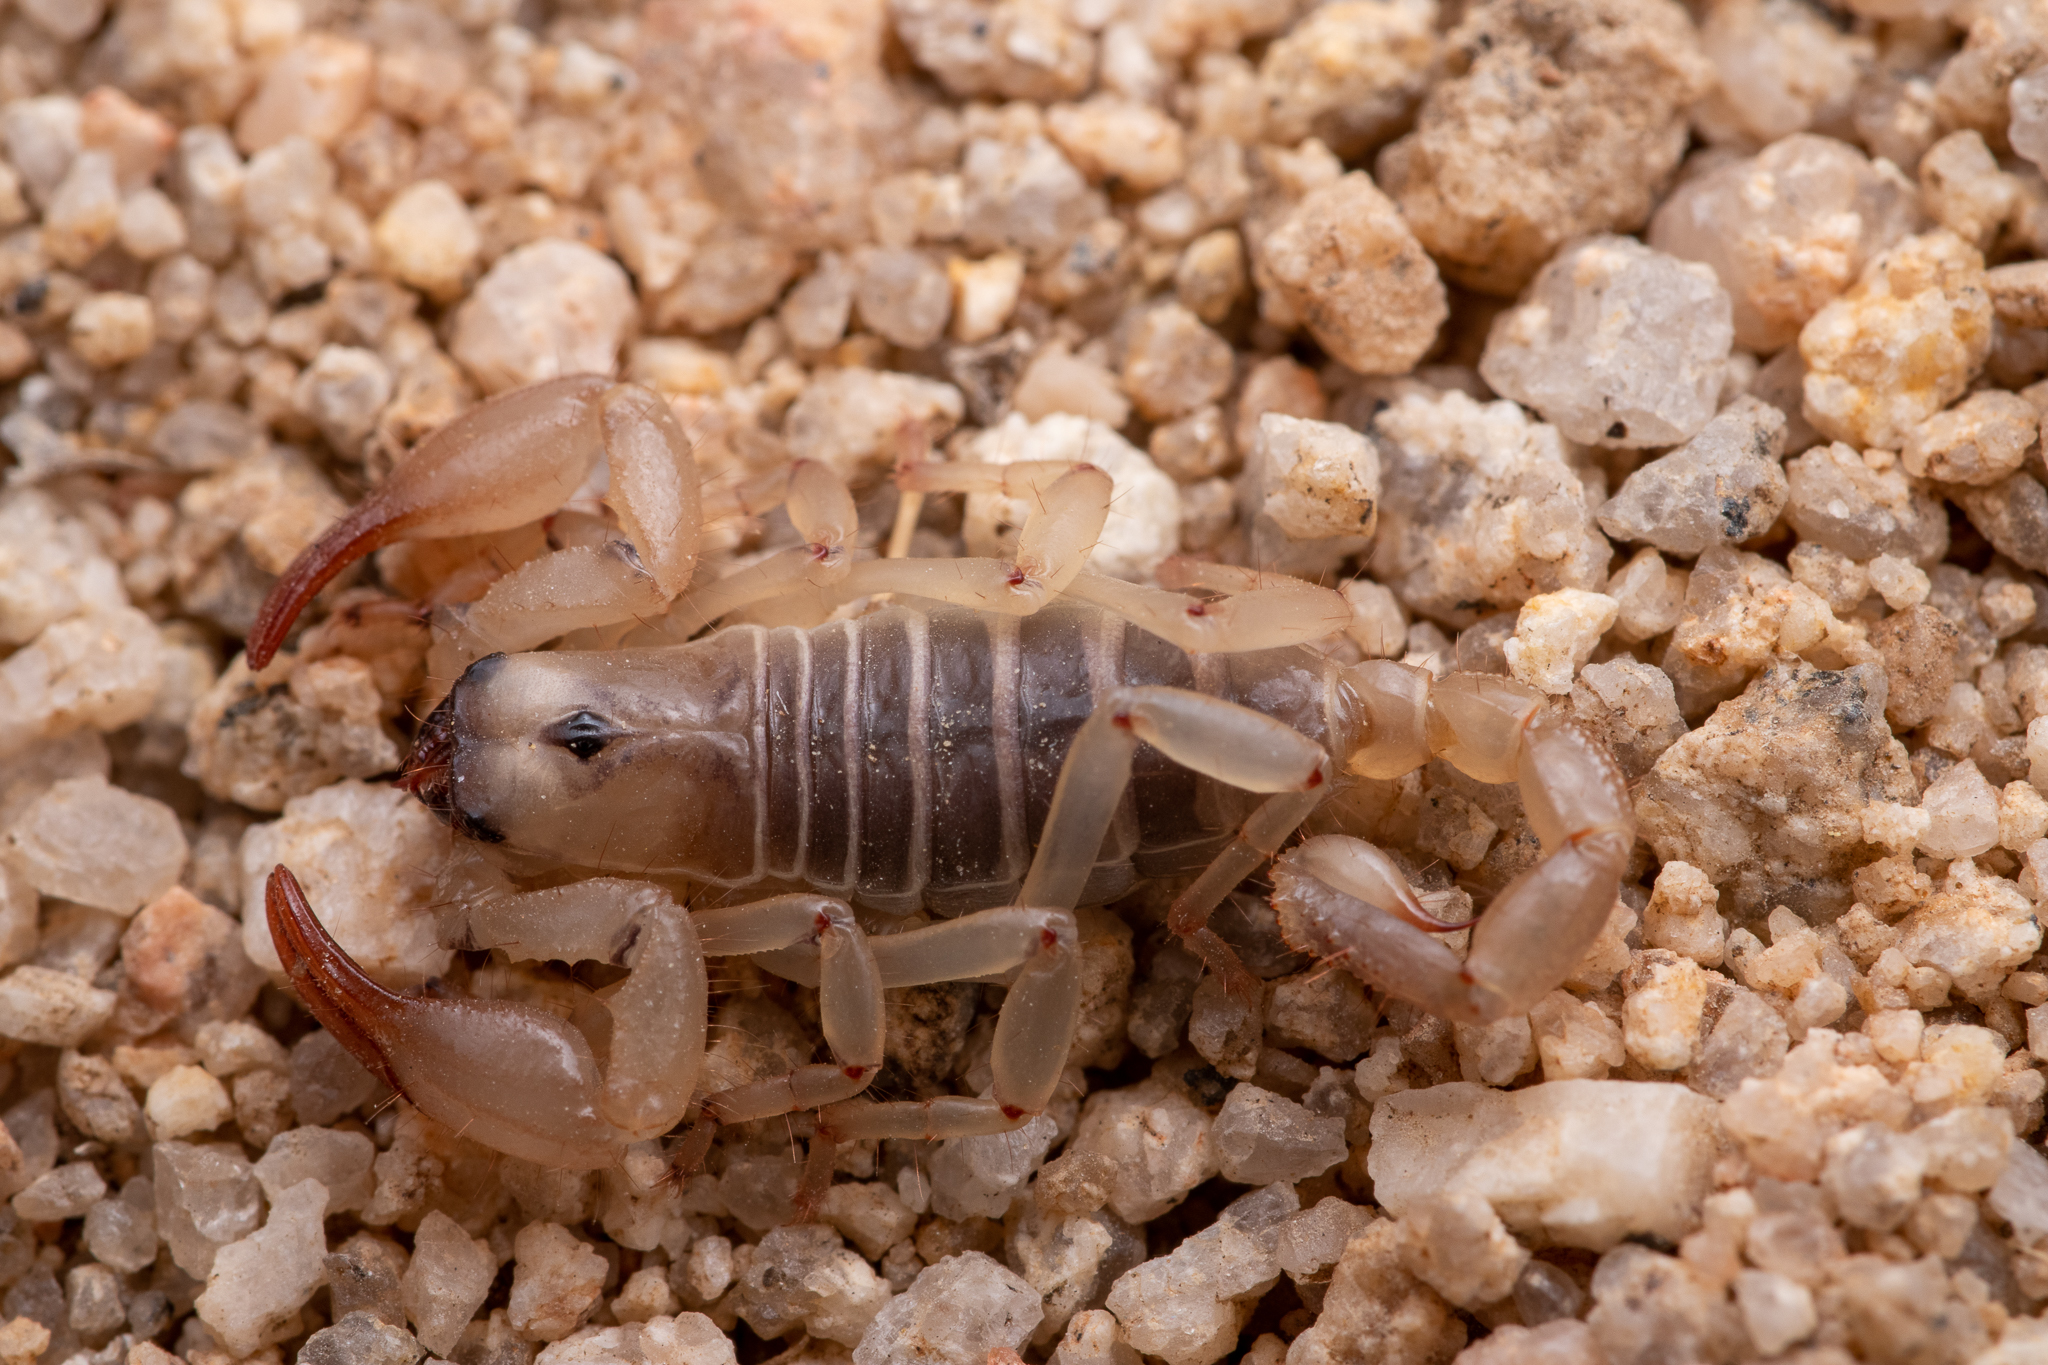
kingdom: Animalia
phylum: Arthropoda
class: Arachnida
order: Scorpiones
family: Chactidae
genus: Anuroctonus
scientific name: Anuroctonus pococki
